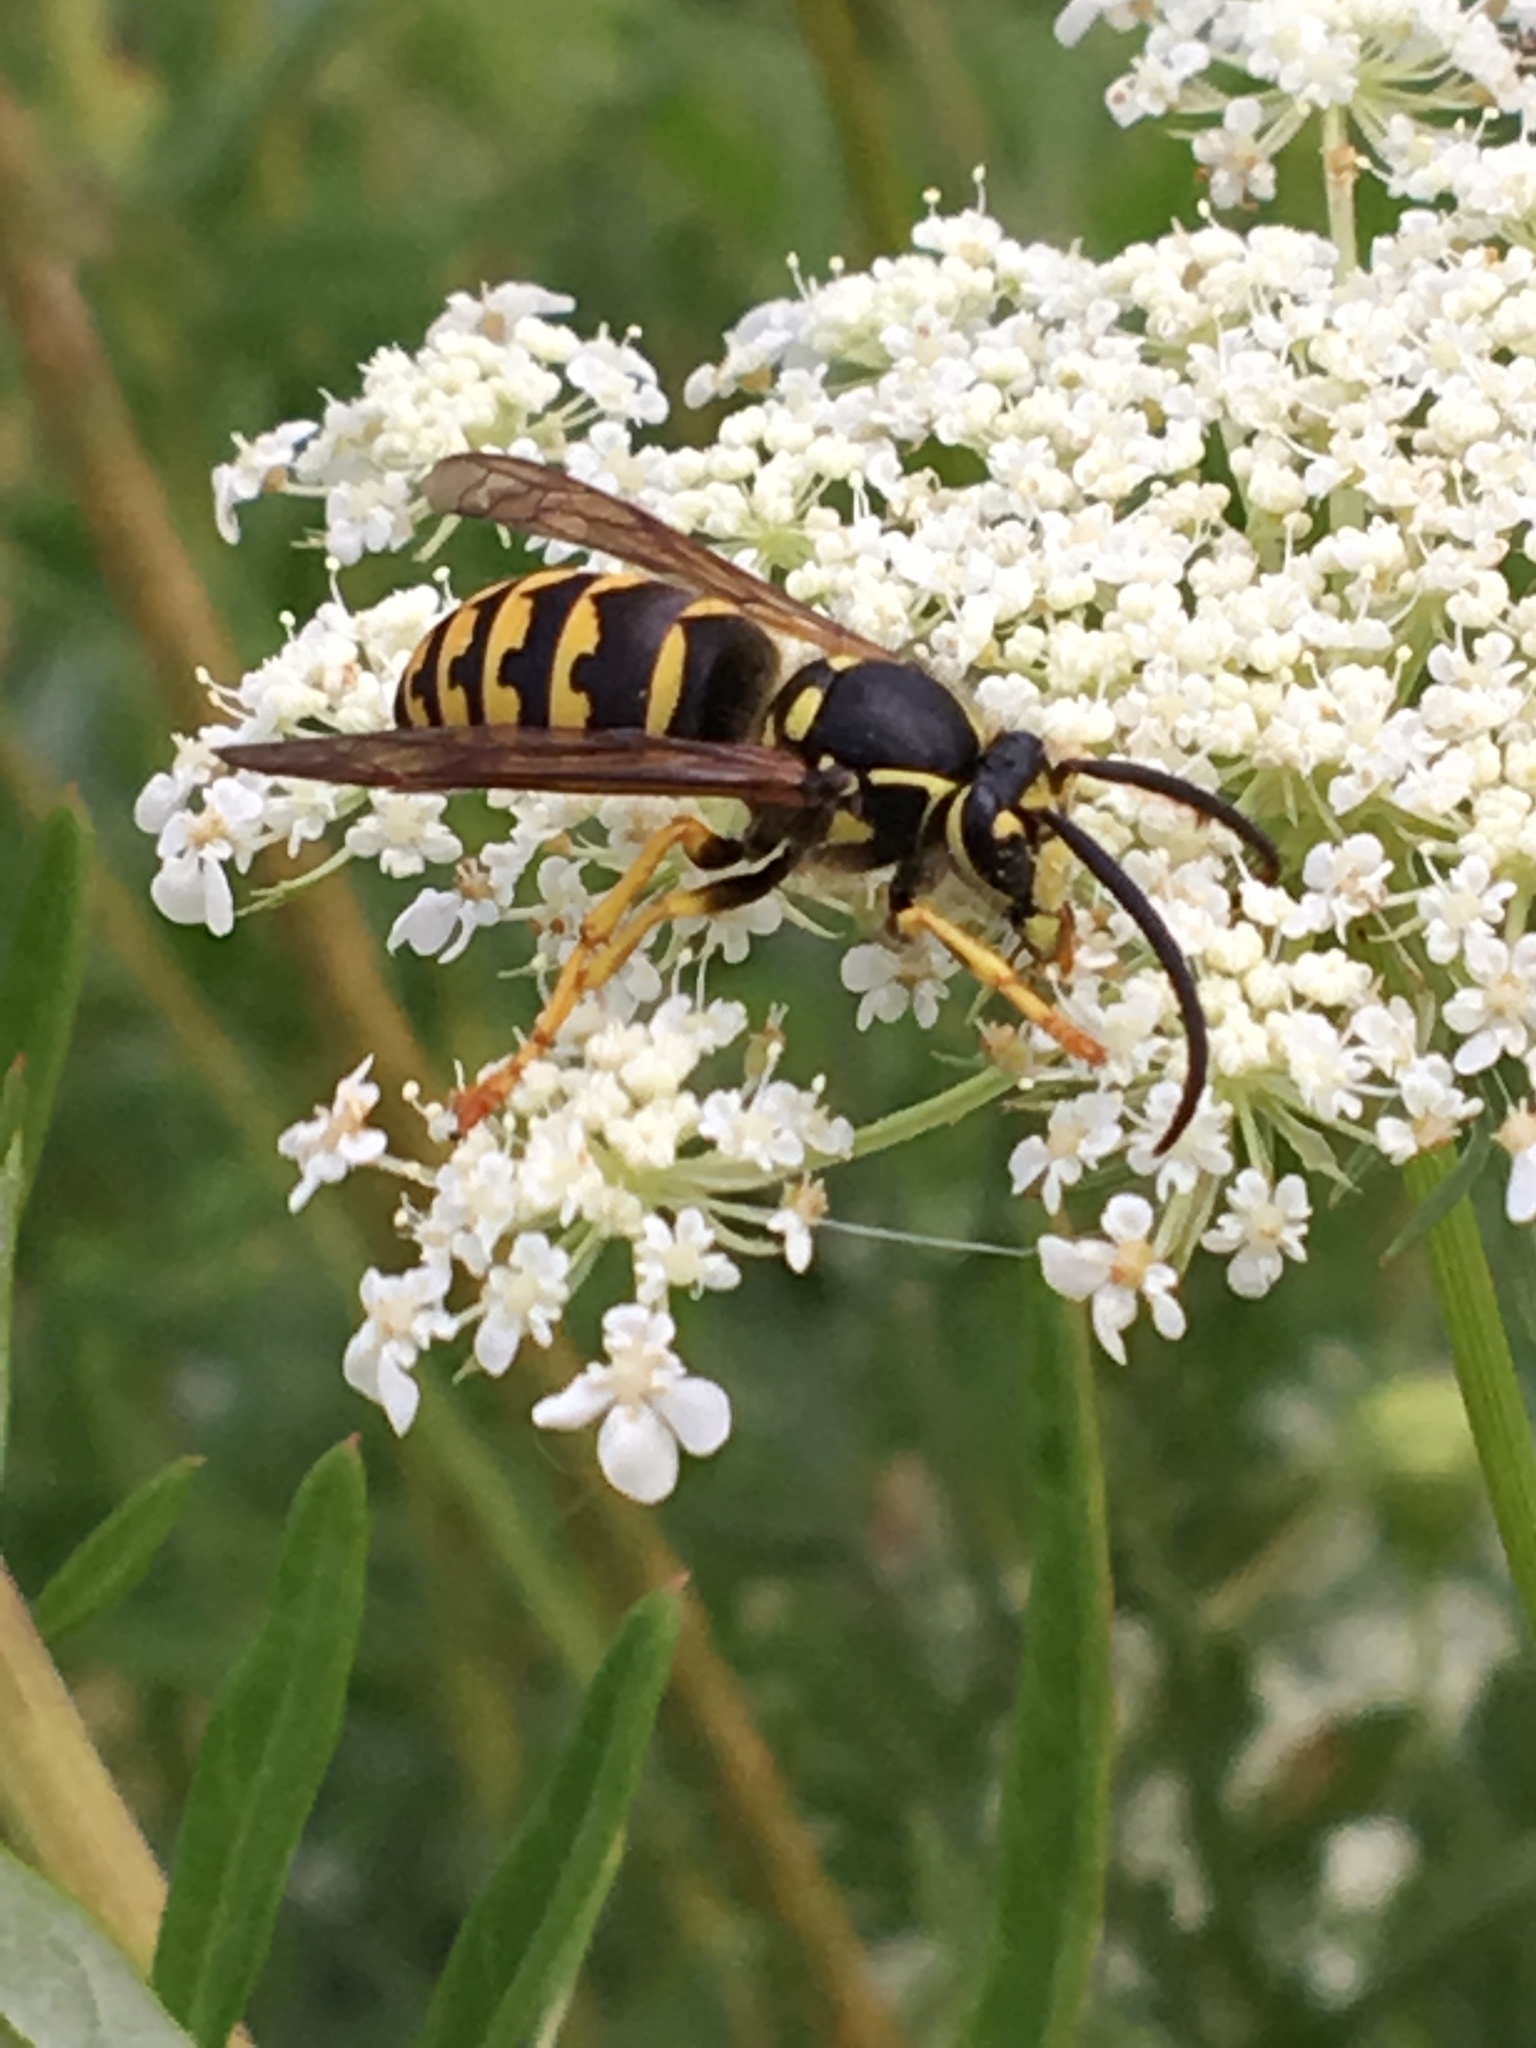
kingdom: Animalia
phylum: Arthropoda
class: Insecta
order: Hymenoptera
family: Vespidae
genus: Dolichovespula
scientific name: Dolichovespula arenaria
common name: Aerial yellowjacket
